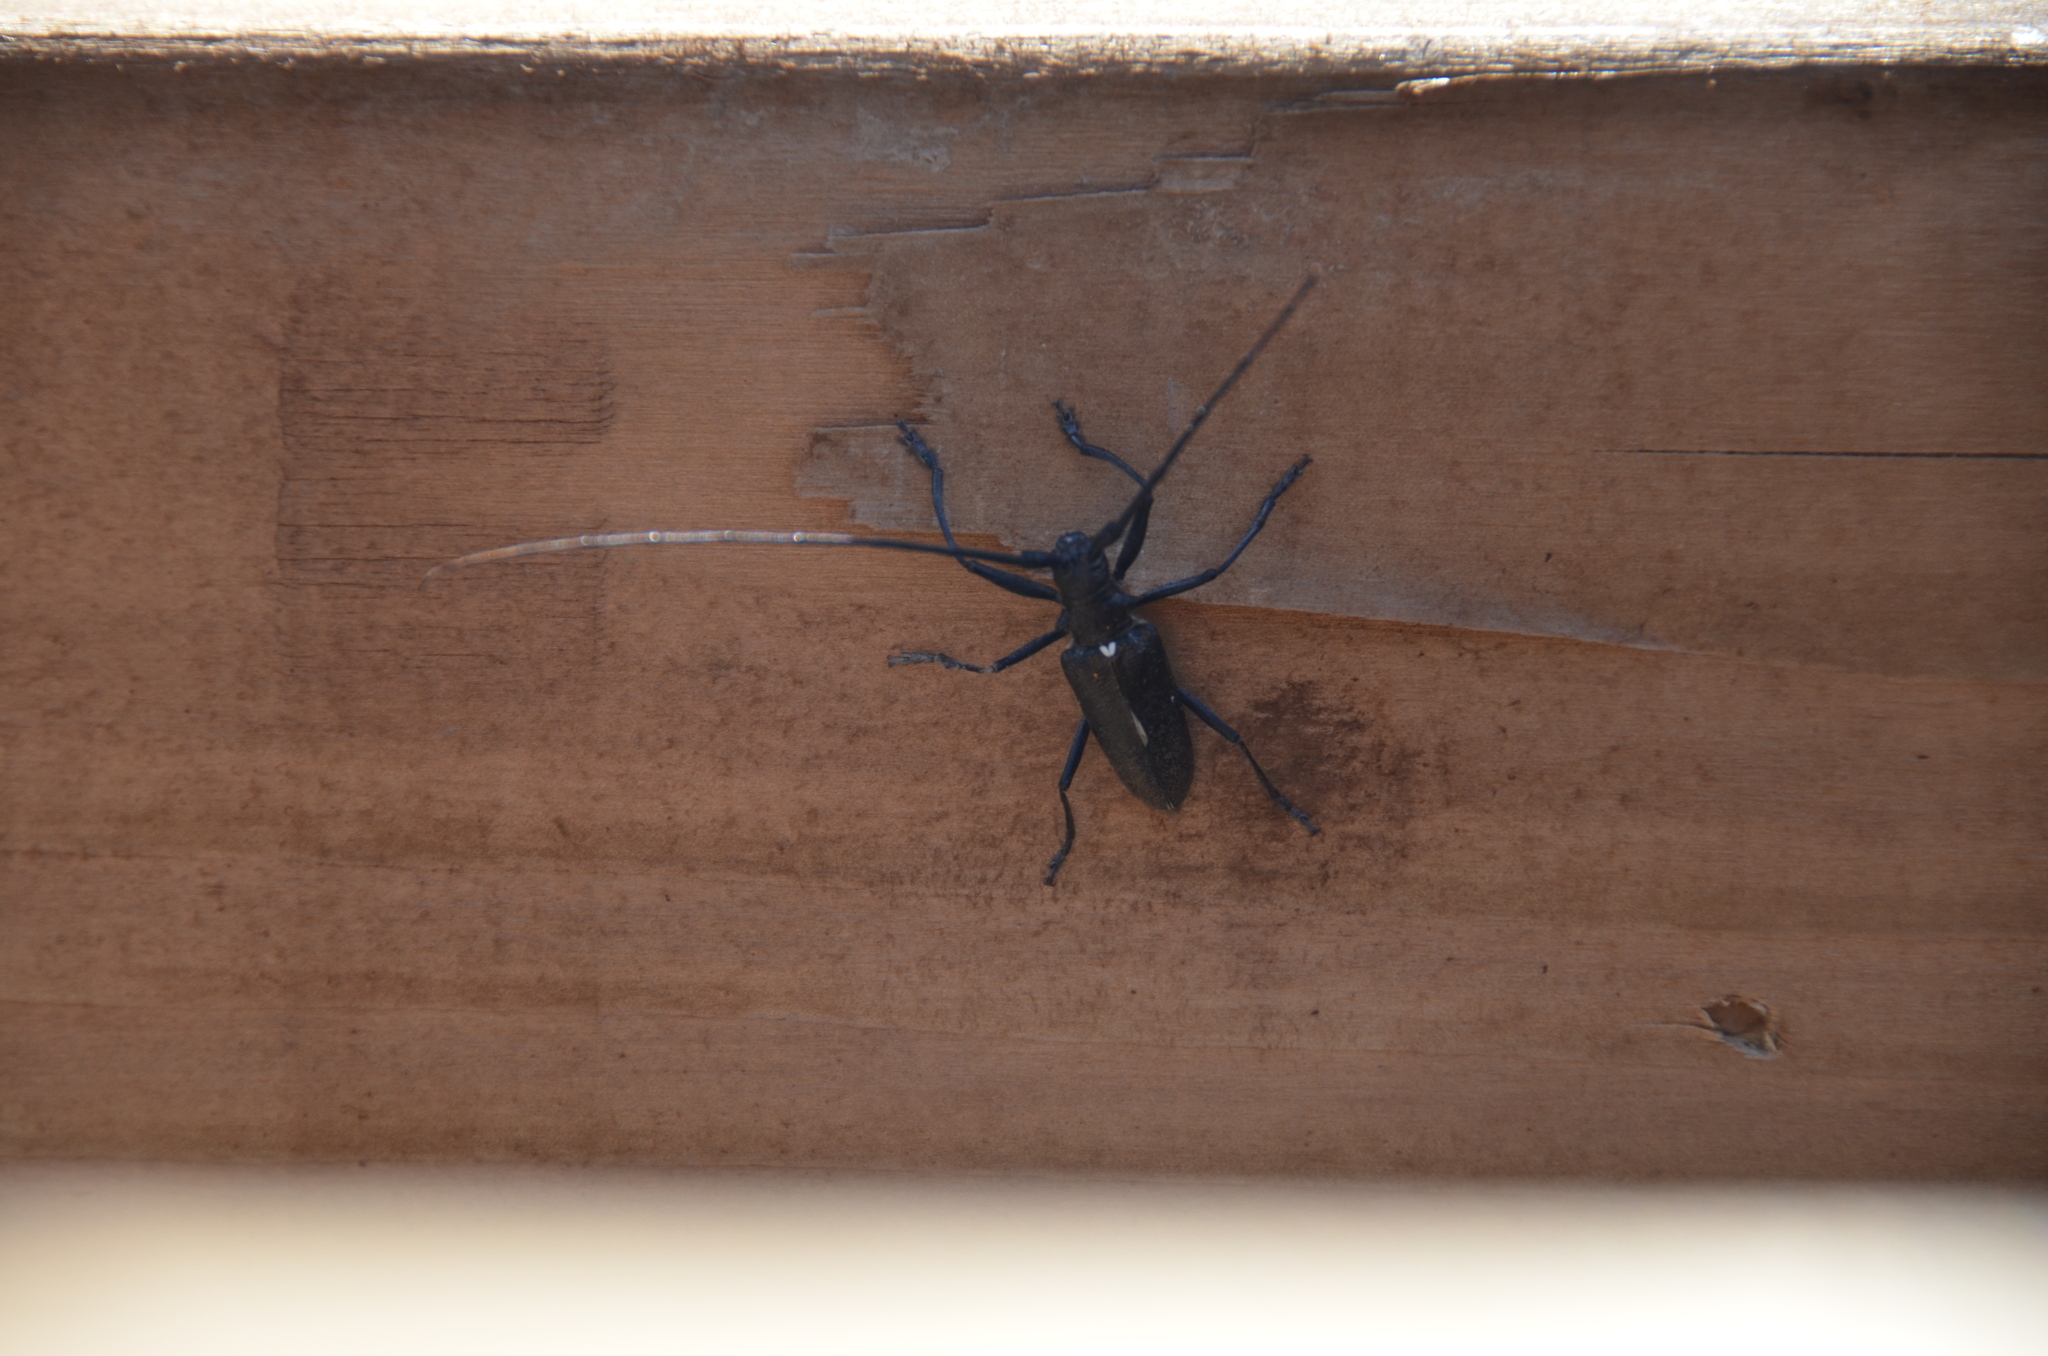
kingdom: Animalia
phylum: Arthropoda
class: Insecta
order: Coleoptera
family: Cerambycidae
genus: Monochamus
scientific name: Monochamus scutellatus
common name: White-spotted sawyer beetle
